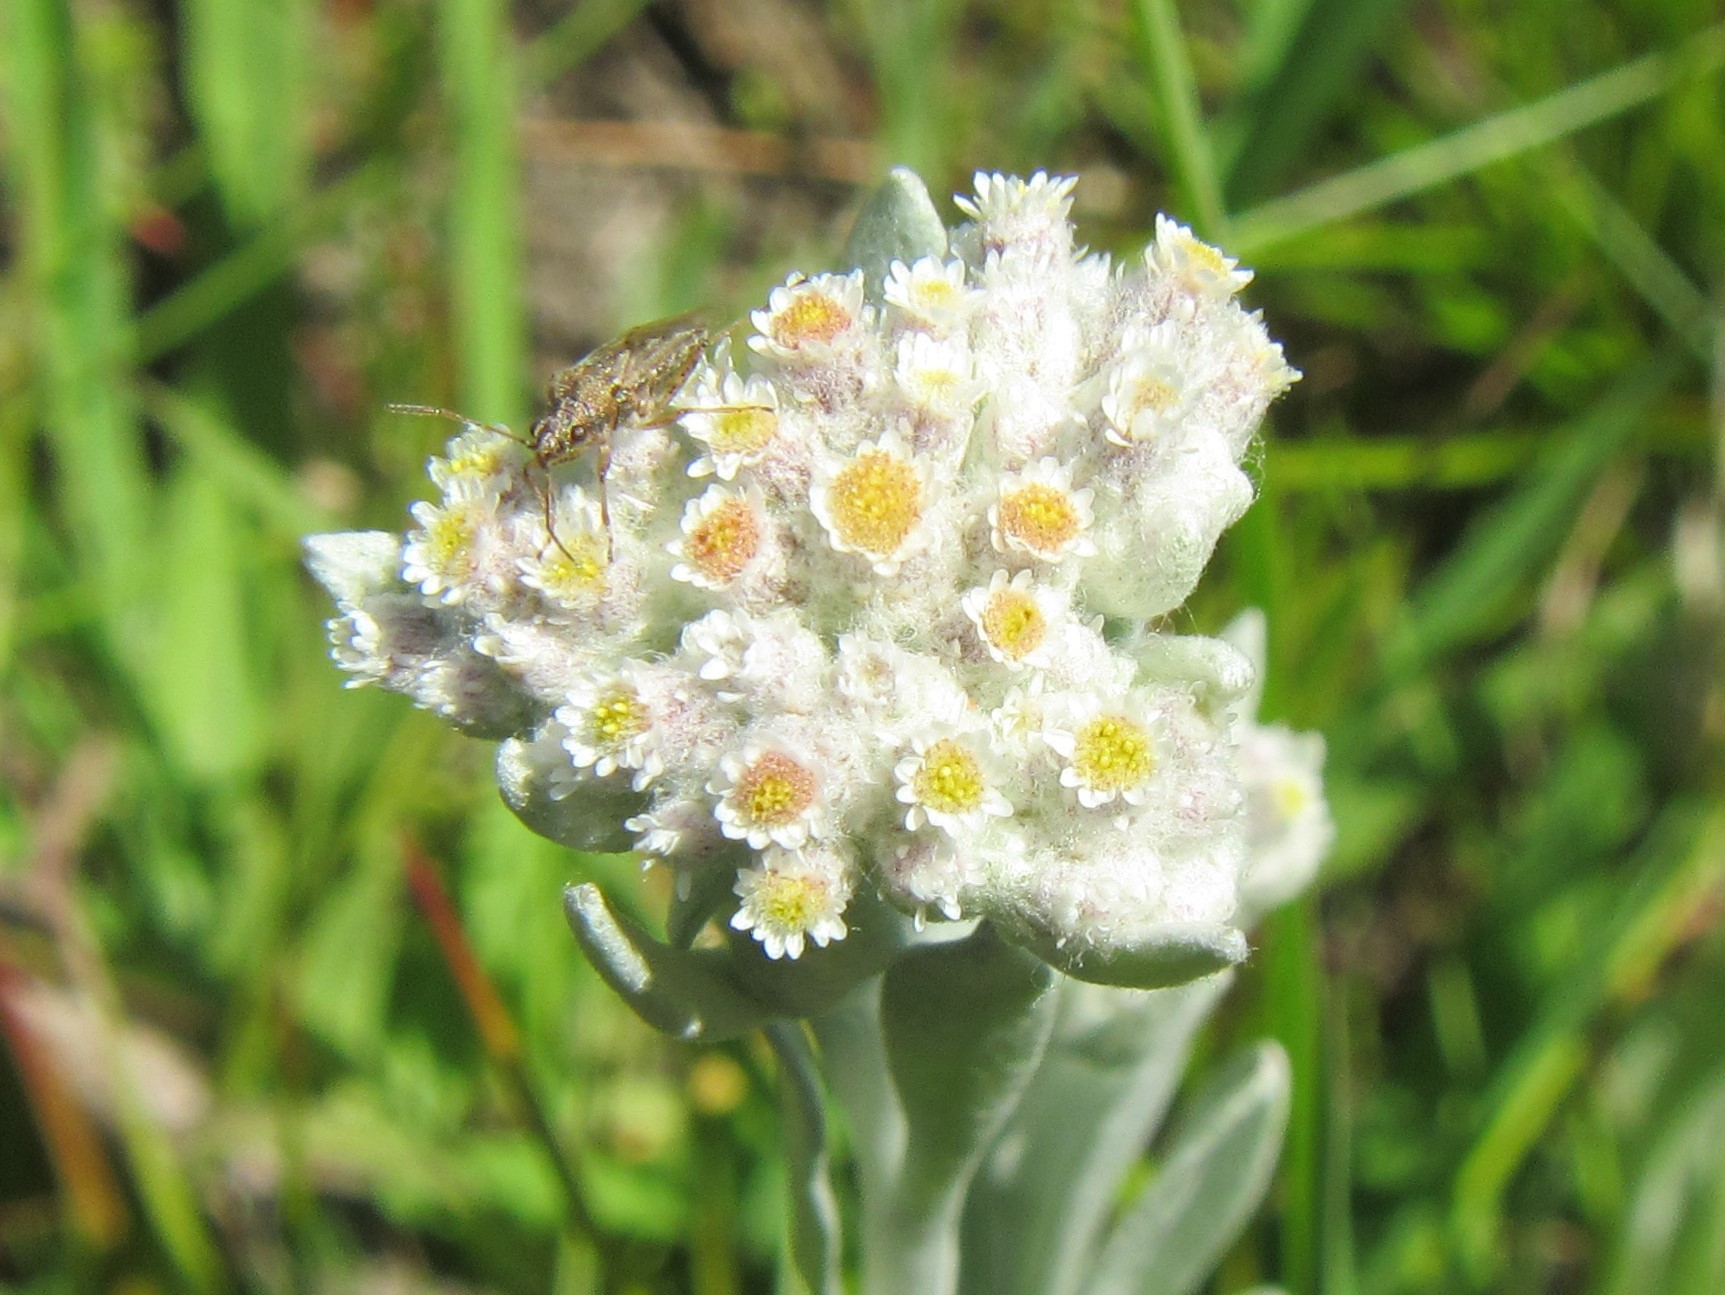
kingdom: Plantae
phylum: Tracheophyta
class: Magnoliopsida
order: Asterales
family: Asteraceae
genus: Vellereophyton
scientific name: Vellereophyton dealbatum
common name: White-cudweed
